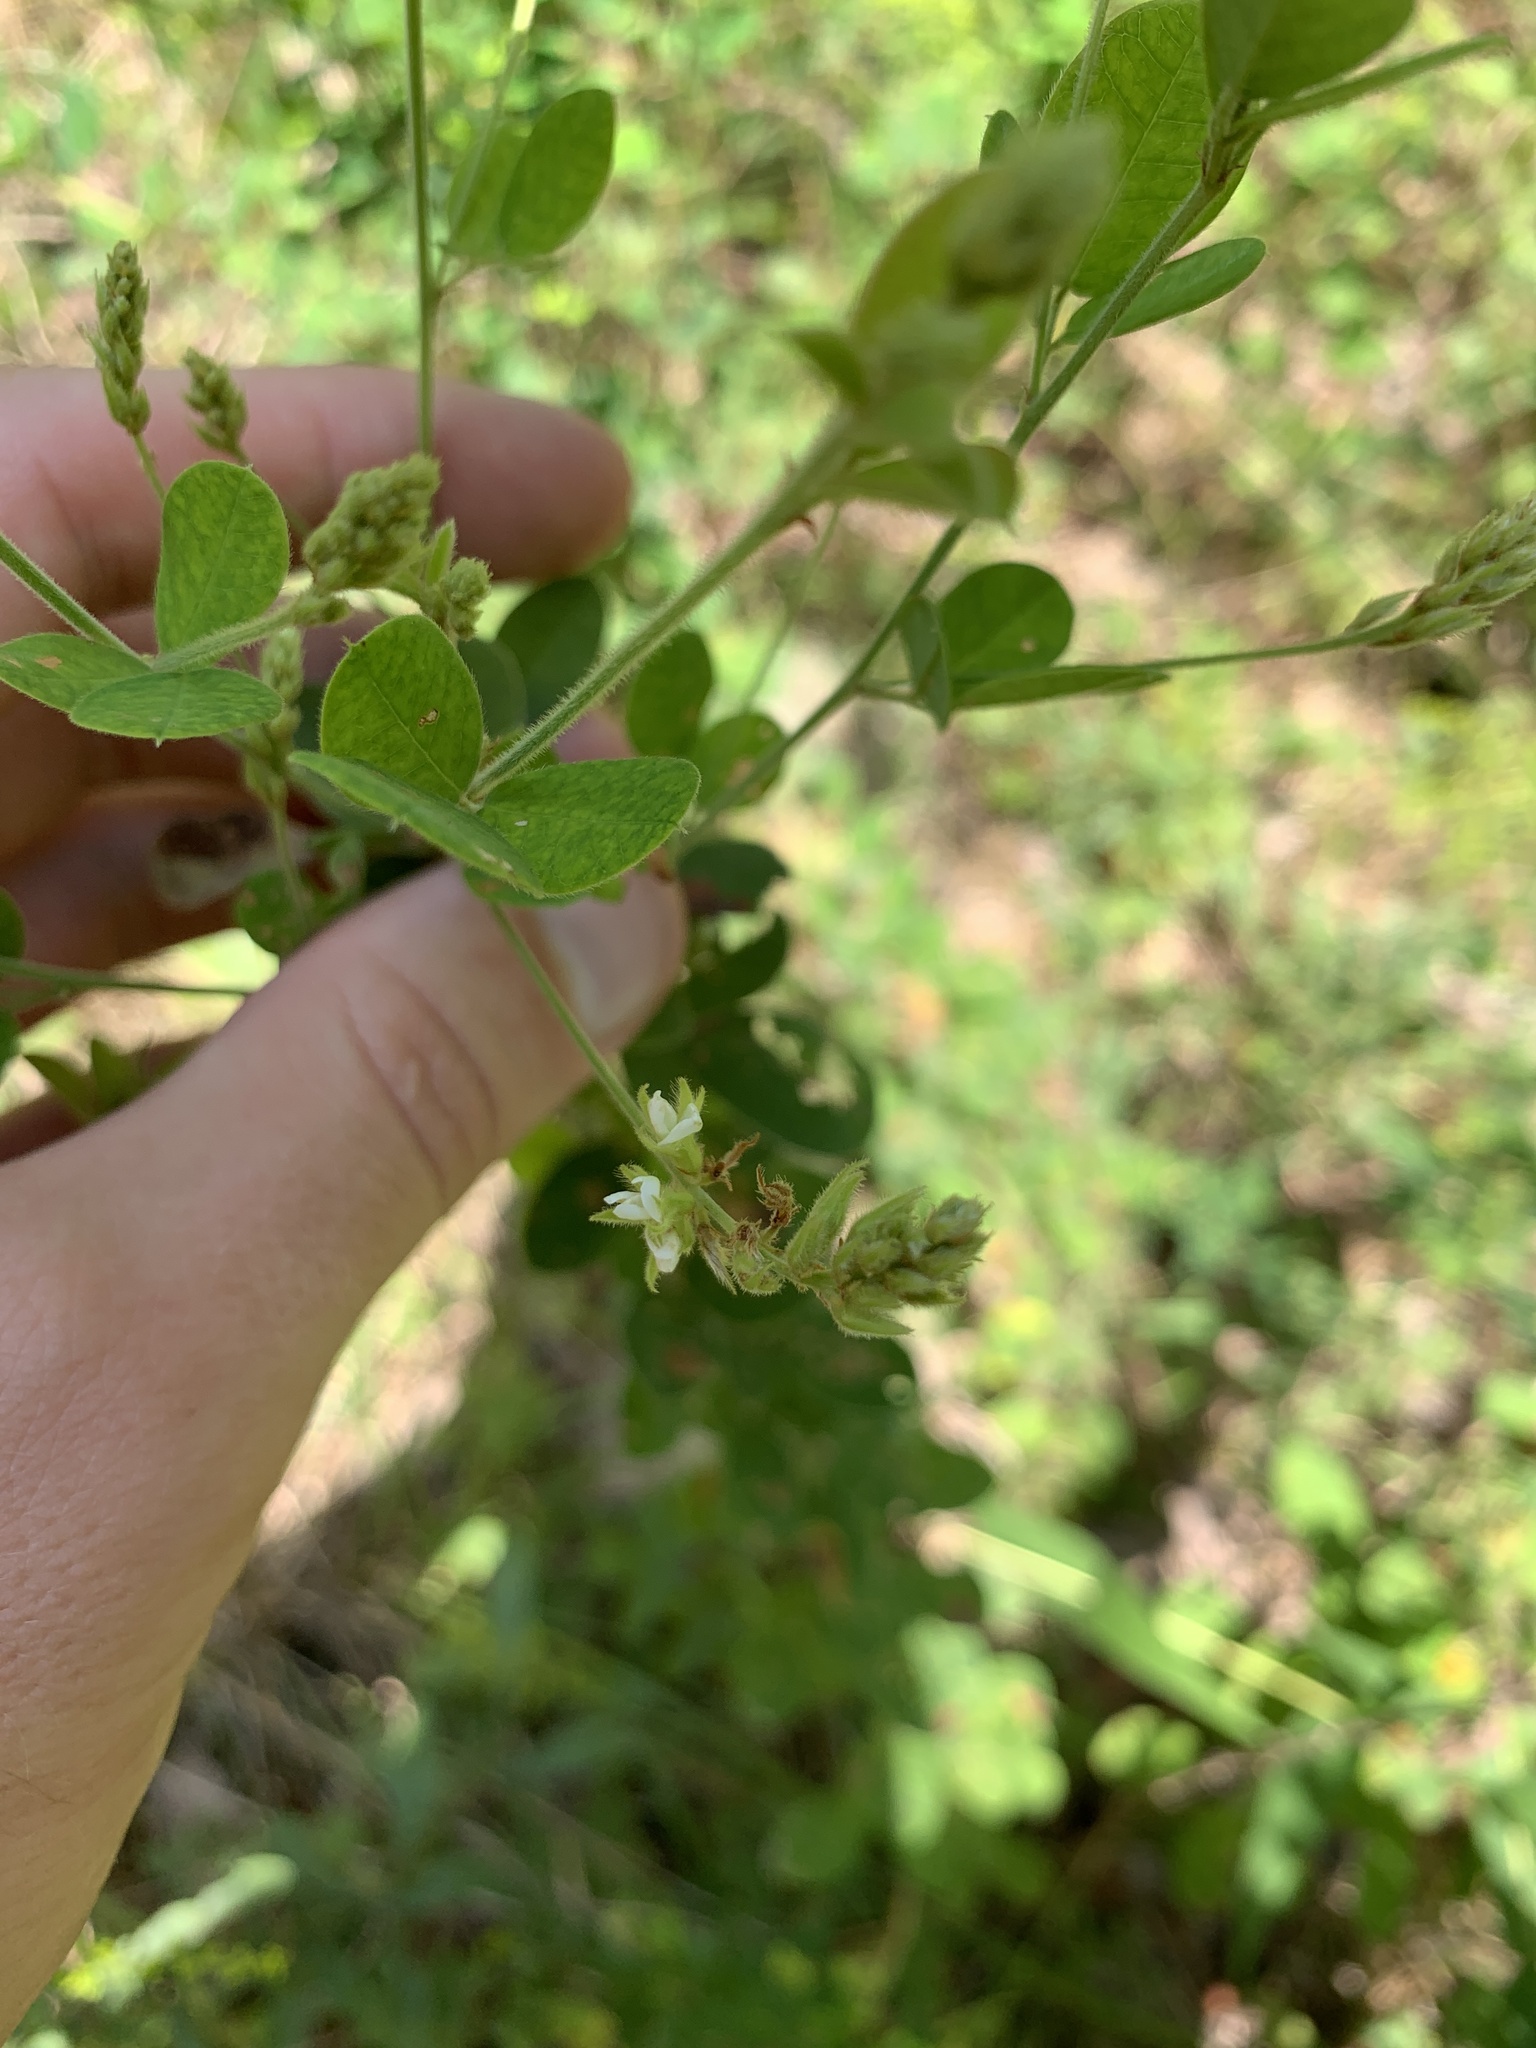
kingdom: Plantae
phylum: Tracheophyta
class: Magnoliopsida
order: Fabales
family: Fabaceae
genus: Lespedeza
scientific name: Lespedeza hirta
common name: Hairy lespedeza
